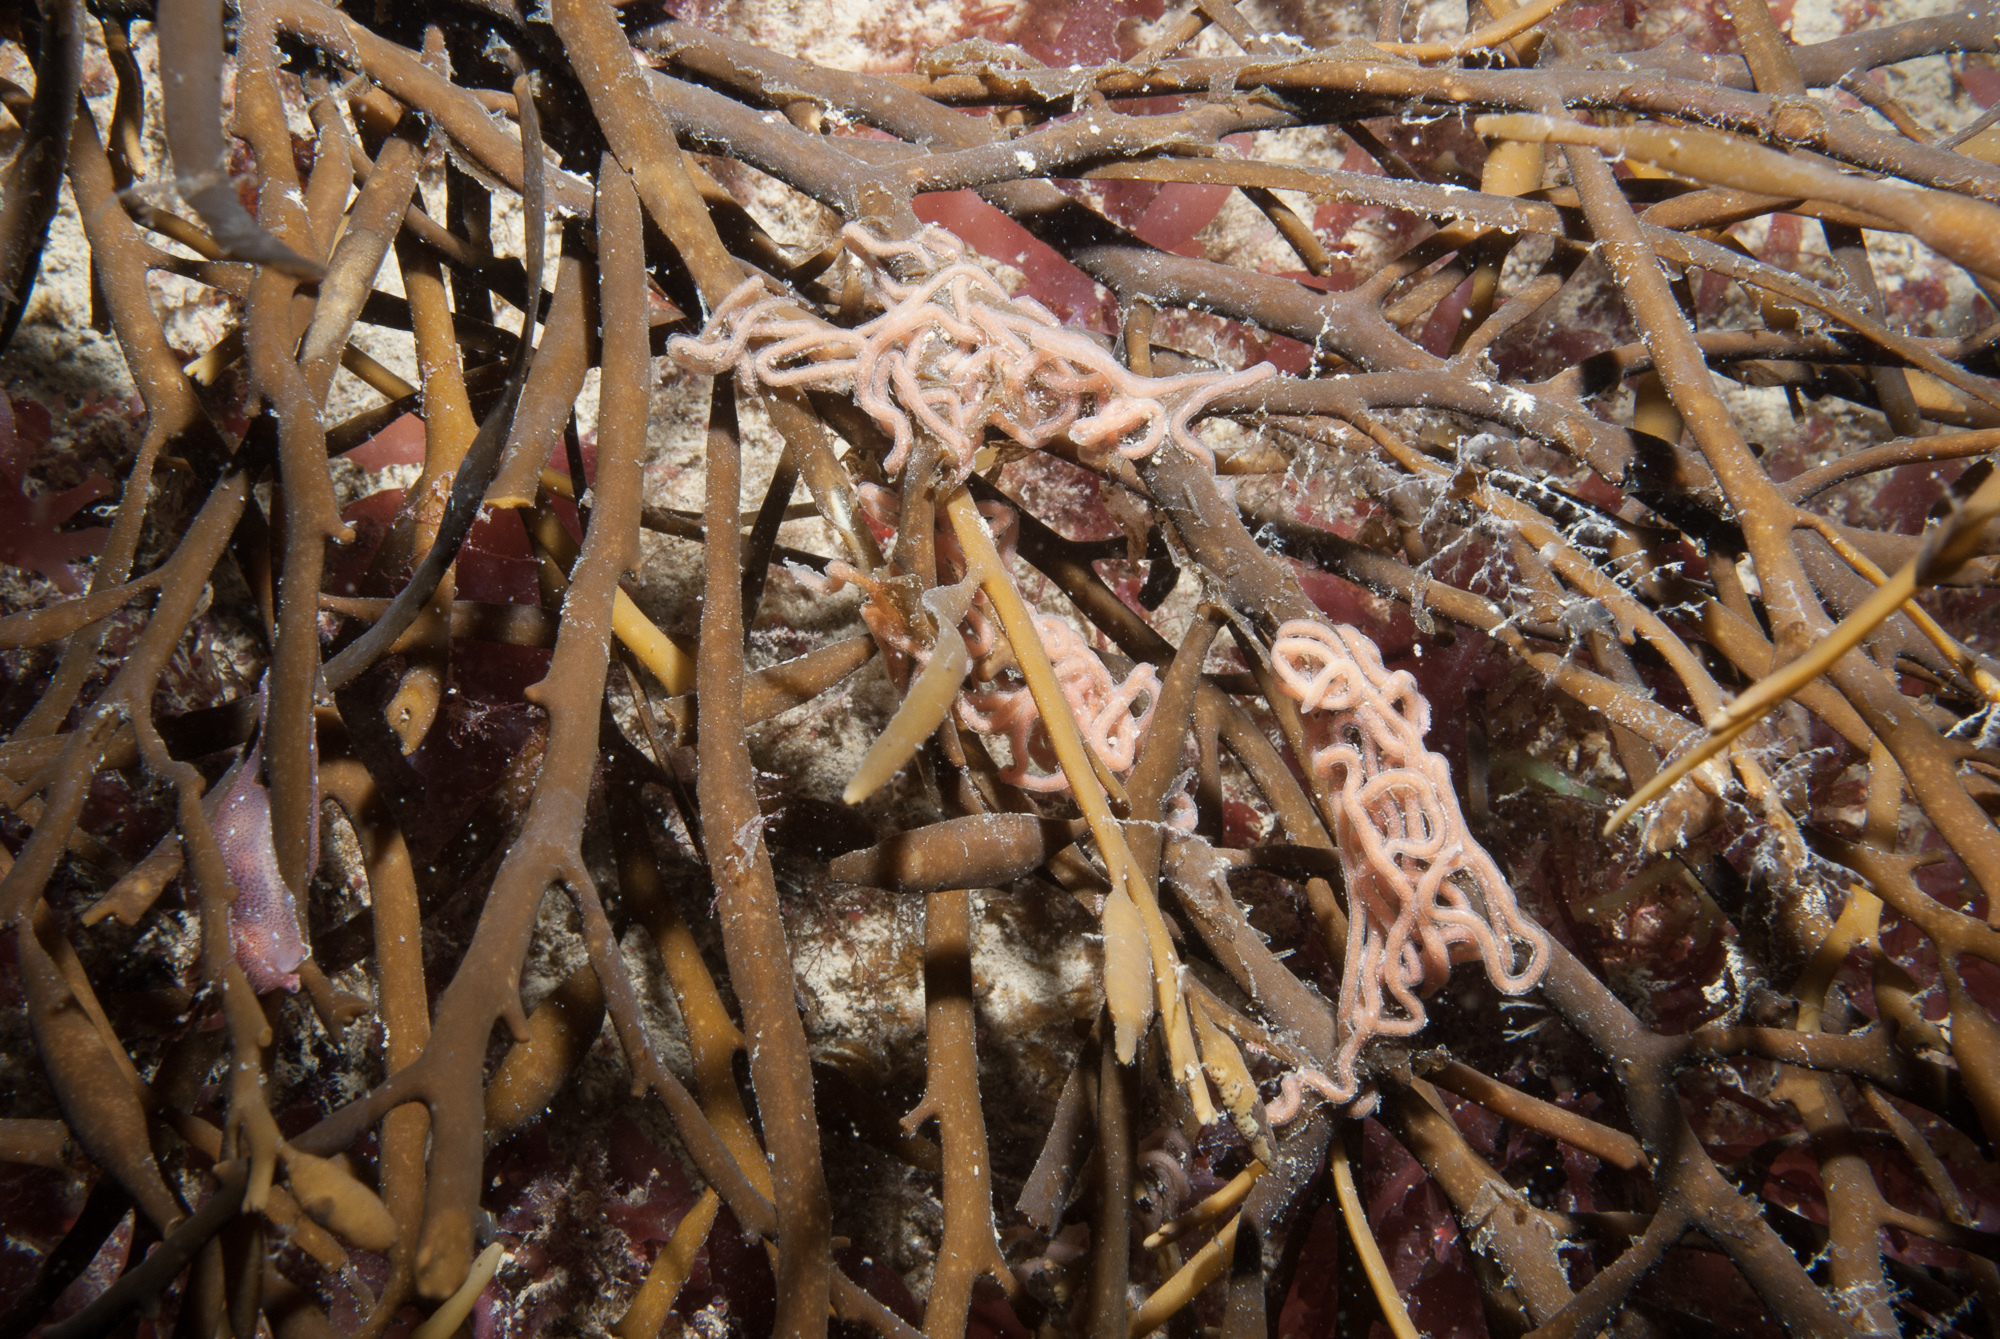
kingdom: Chromista
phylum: Ochrophyta
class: Phaeophyceae
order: Fucales
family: Sargassaceae
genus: Halidrys
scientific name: Halidrys siliquosa
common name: Sea oak
